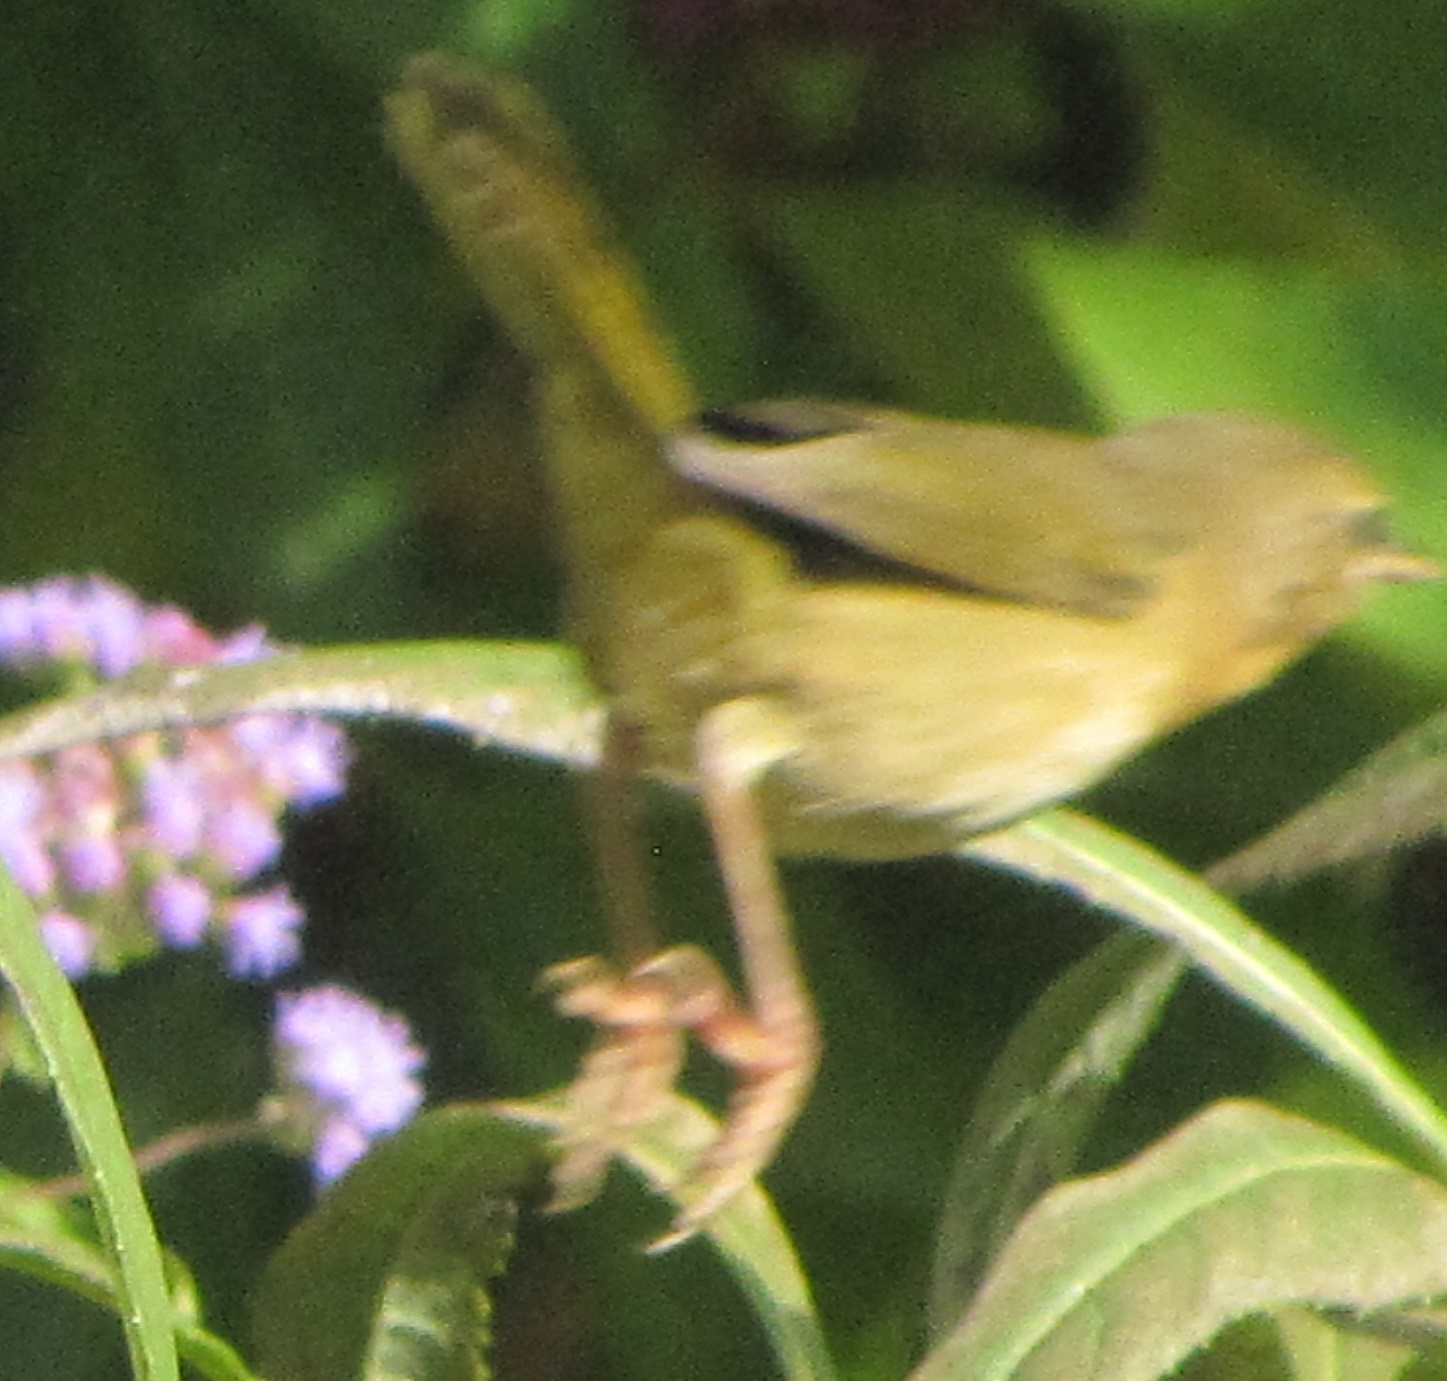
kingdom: Animalia
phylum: Chordata
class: Aves
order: Passeriformes
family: Parulidae
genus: Geothlypis
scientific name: Geothlypis trichas
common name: Common yellowthroat
